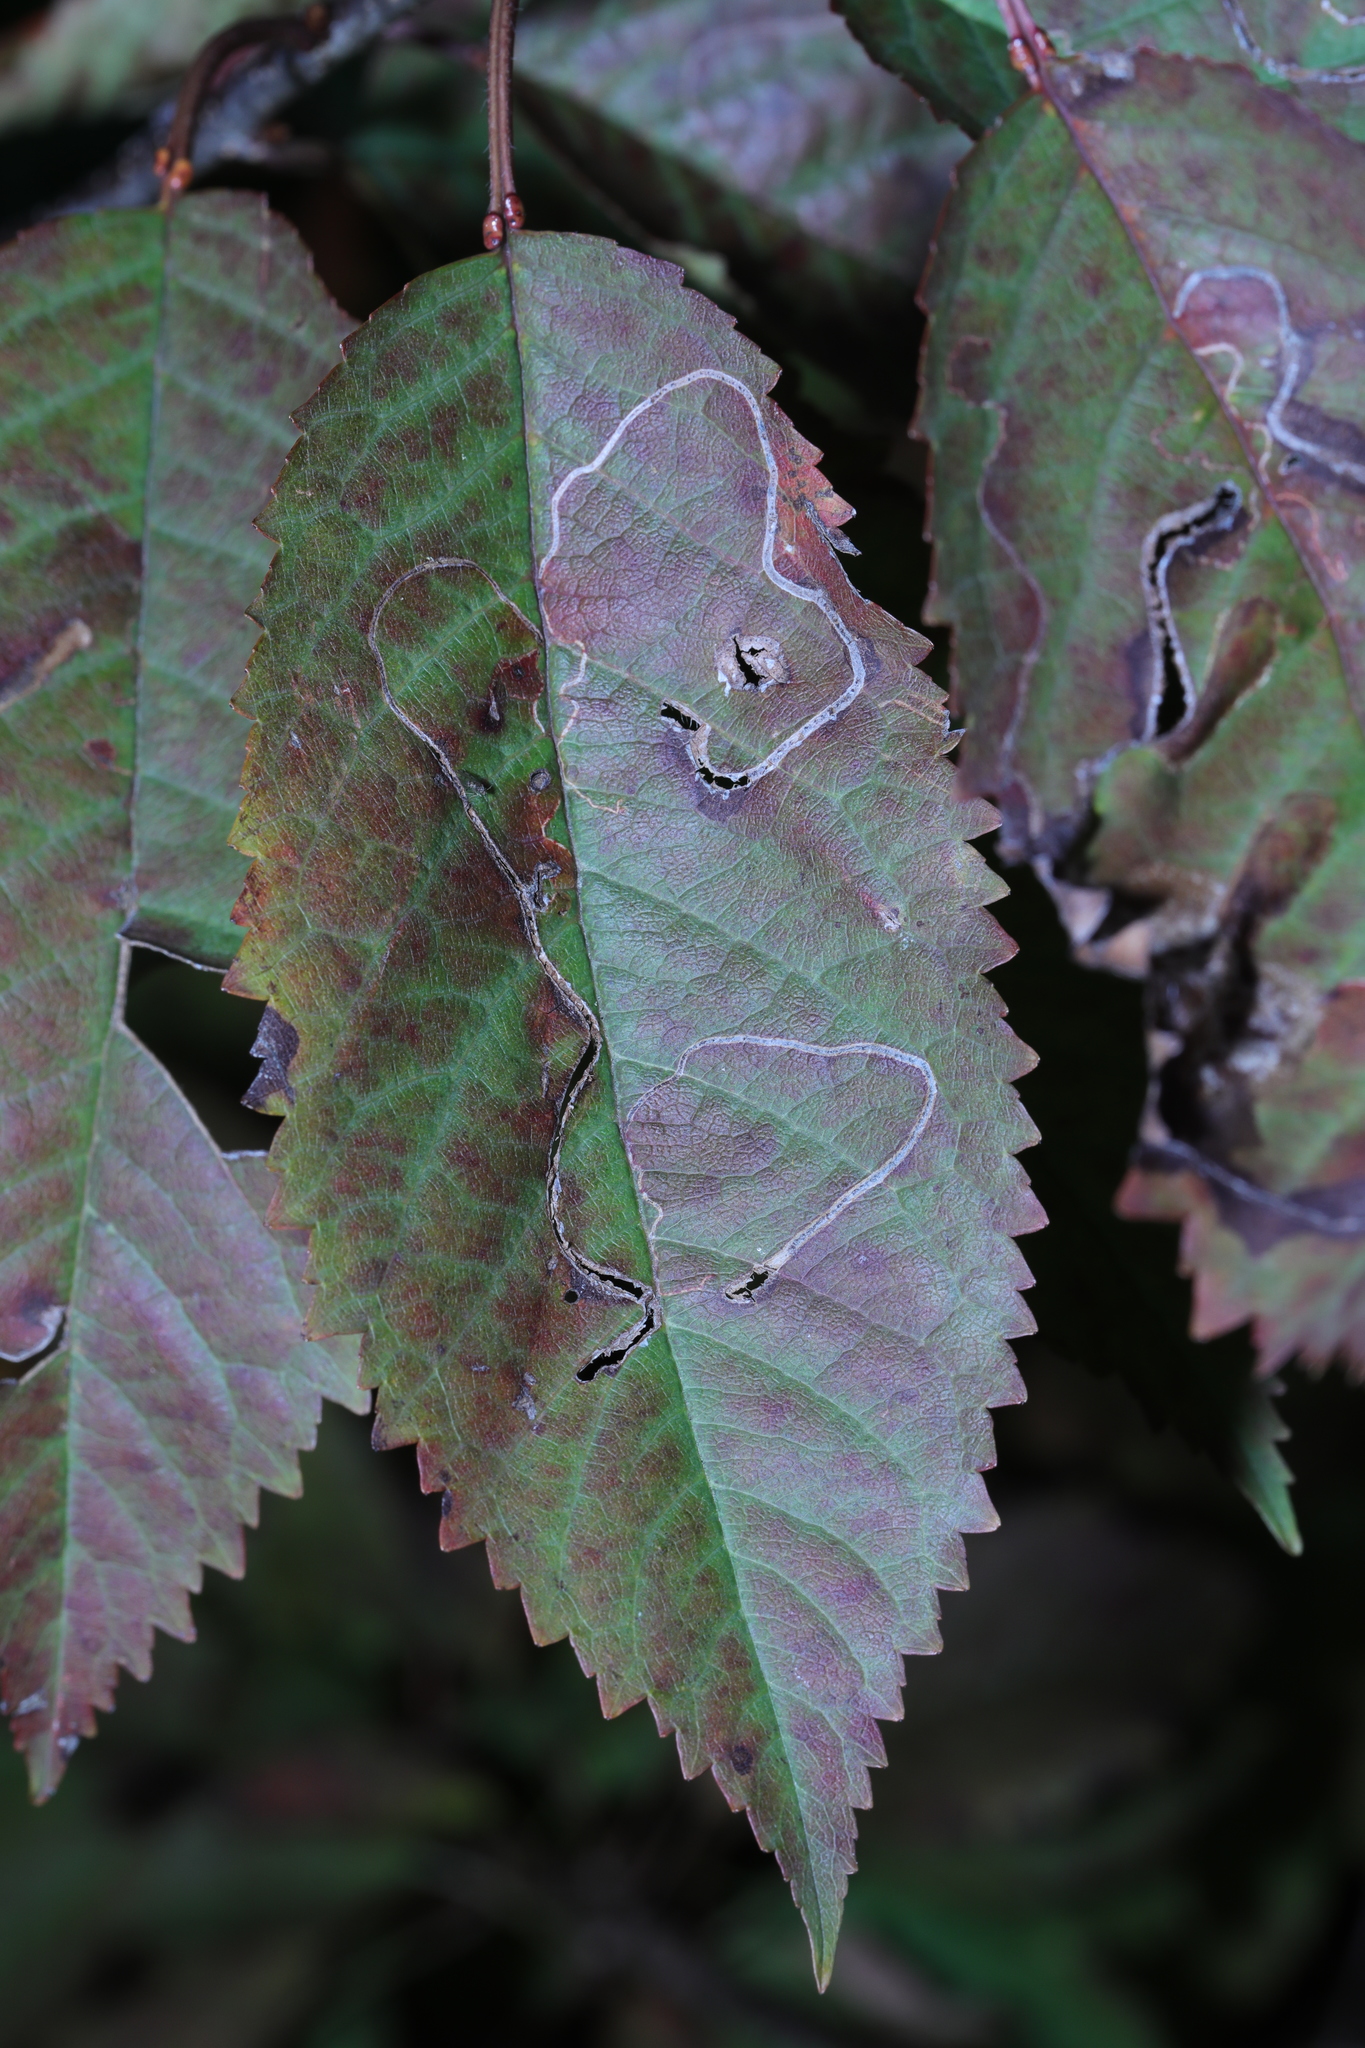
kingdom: Animalia
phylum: Arthropoda
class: Insecta
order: Lepidoptera
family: Lyonetiidae
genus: Lyonetia
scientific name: Lyonetia clerkella
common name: Apple leaf miner
